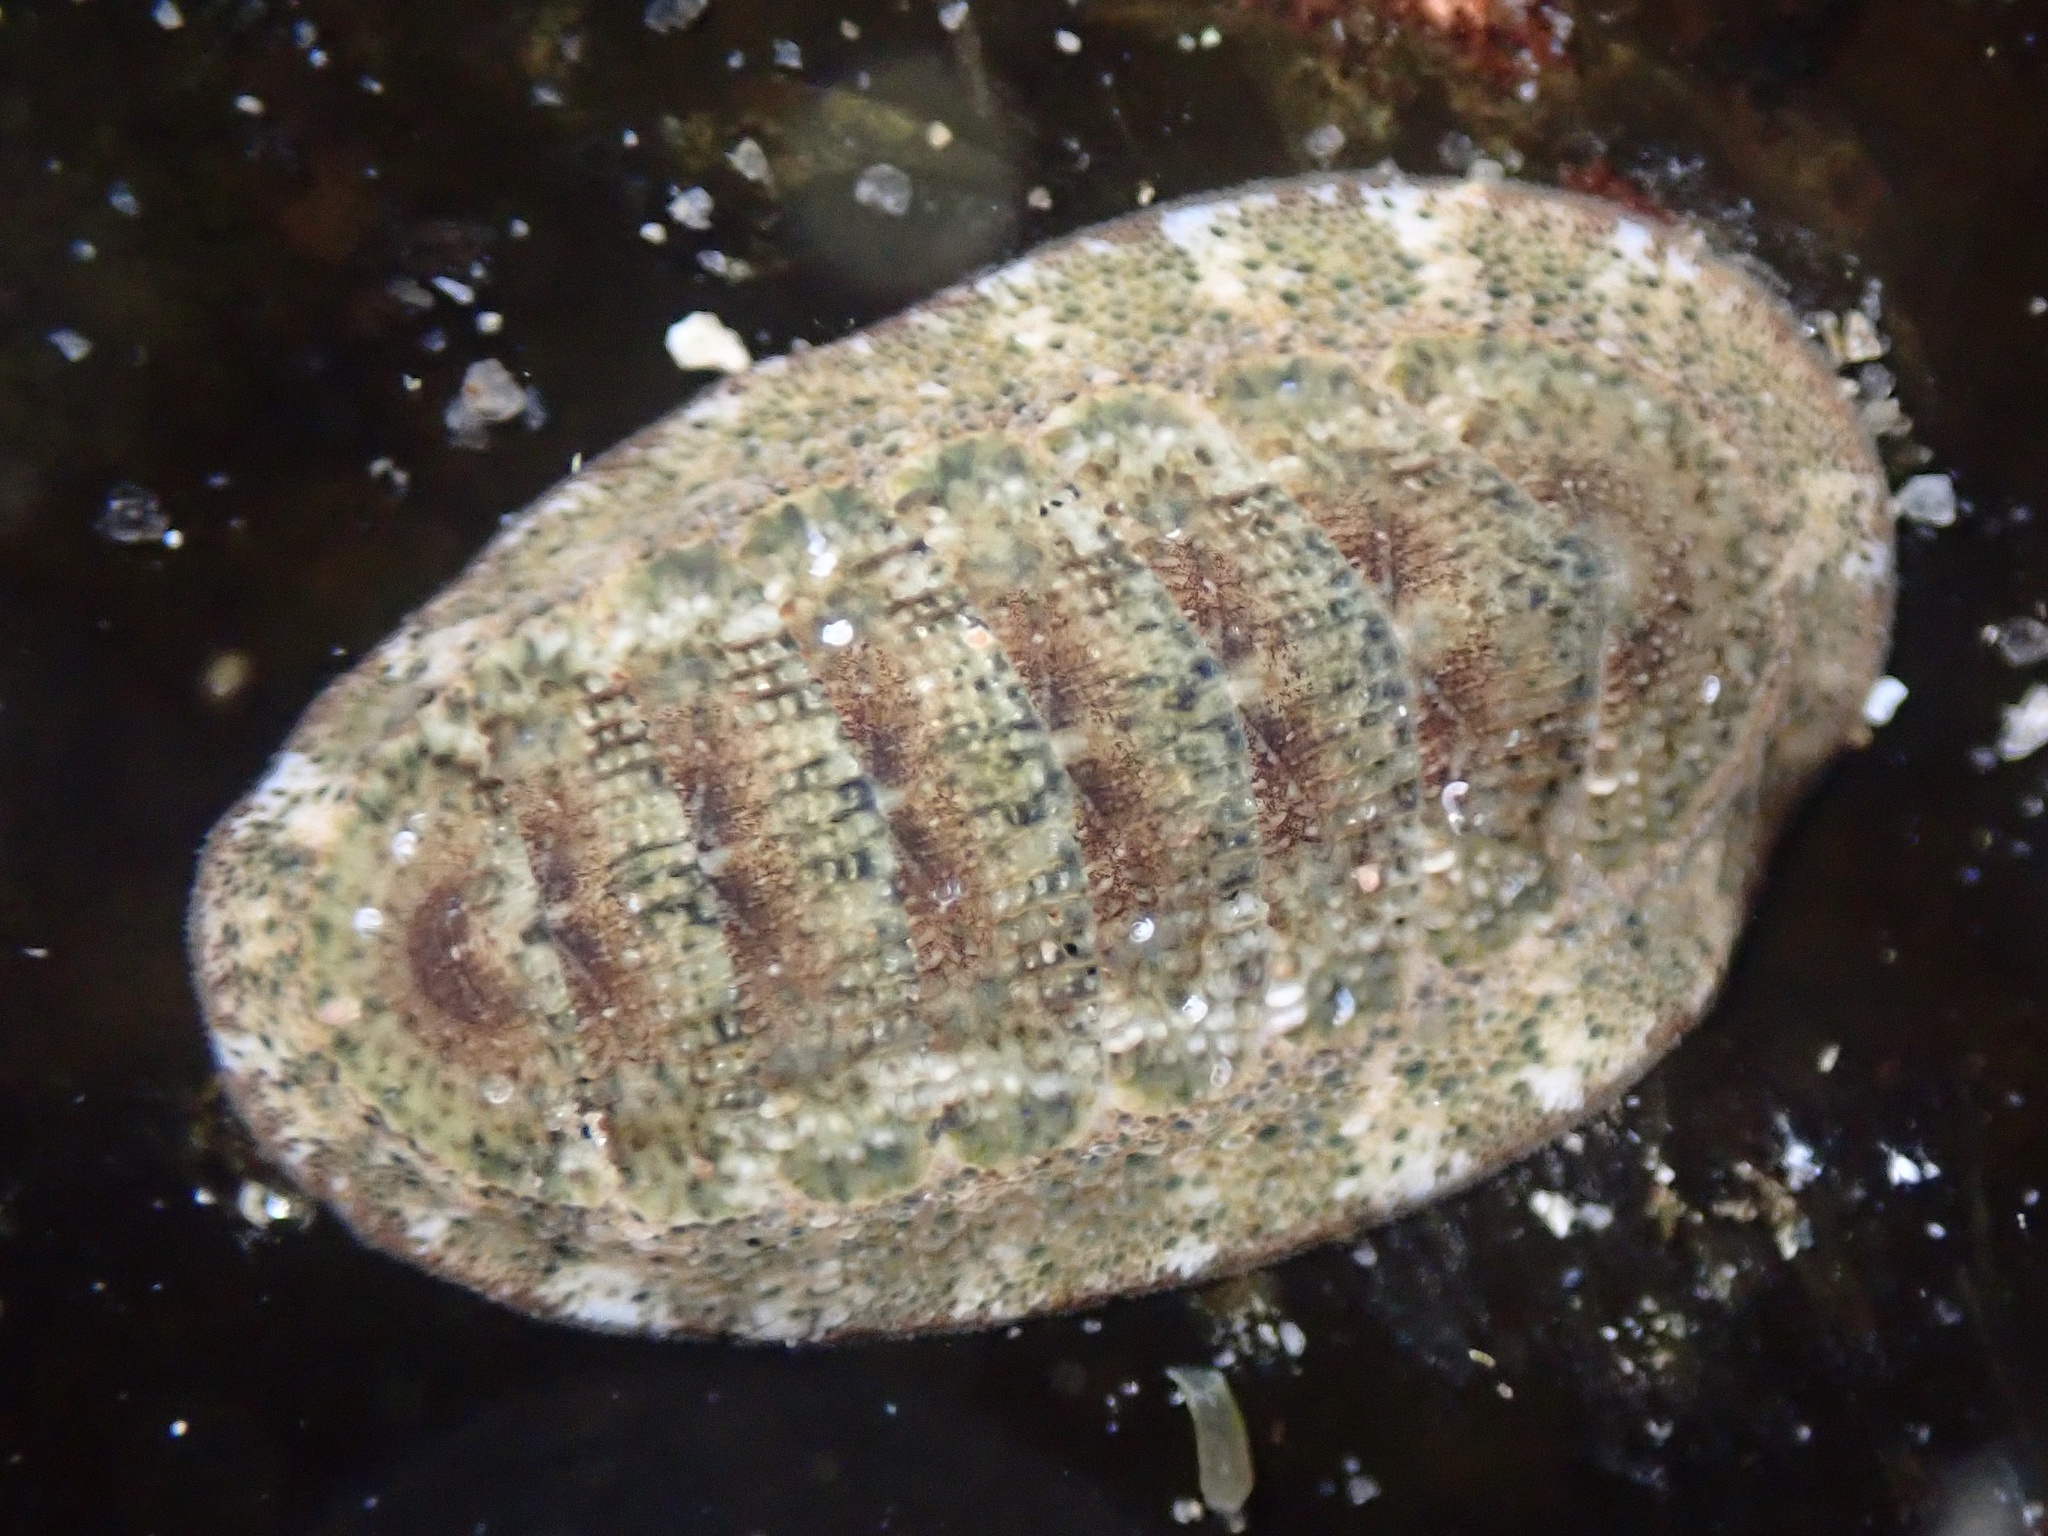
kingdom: Animalia
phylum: Mollusca
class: Polyplacophora
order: Chitonida
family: Ischnochitonidae
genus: Lepidozona
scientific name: Lepidozona pectinulata
